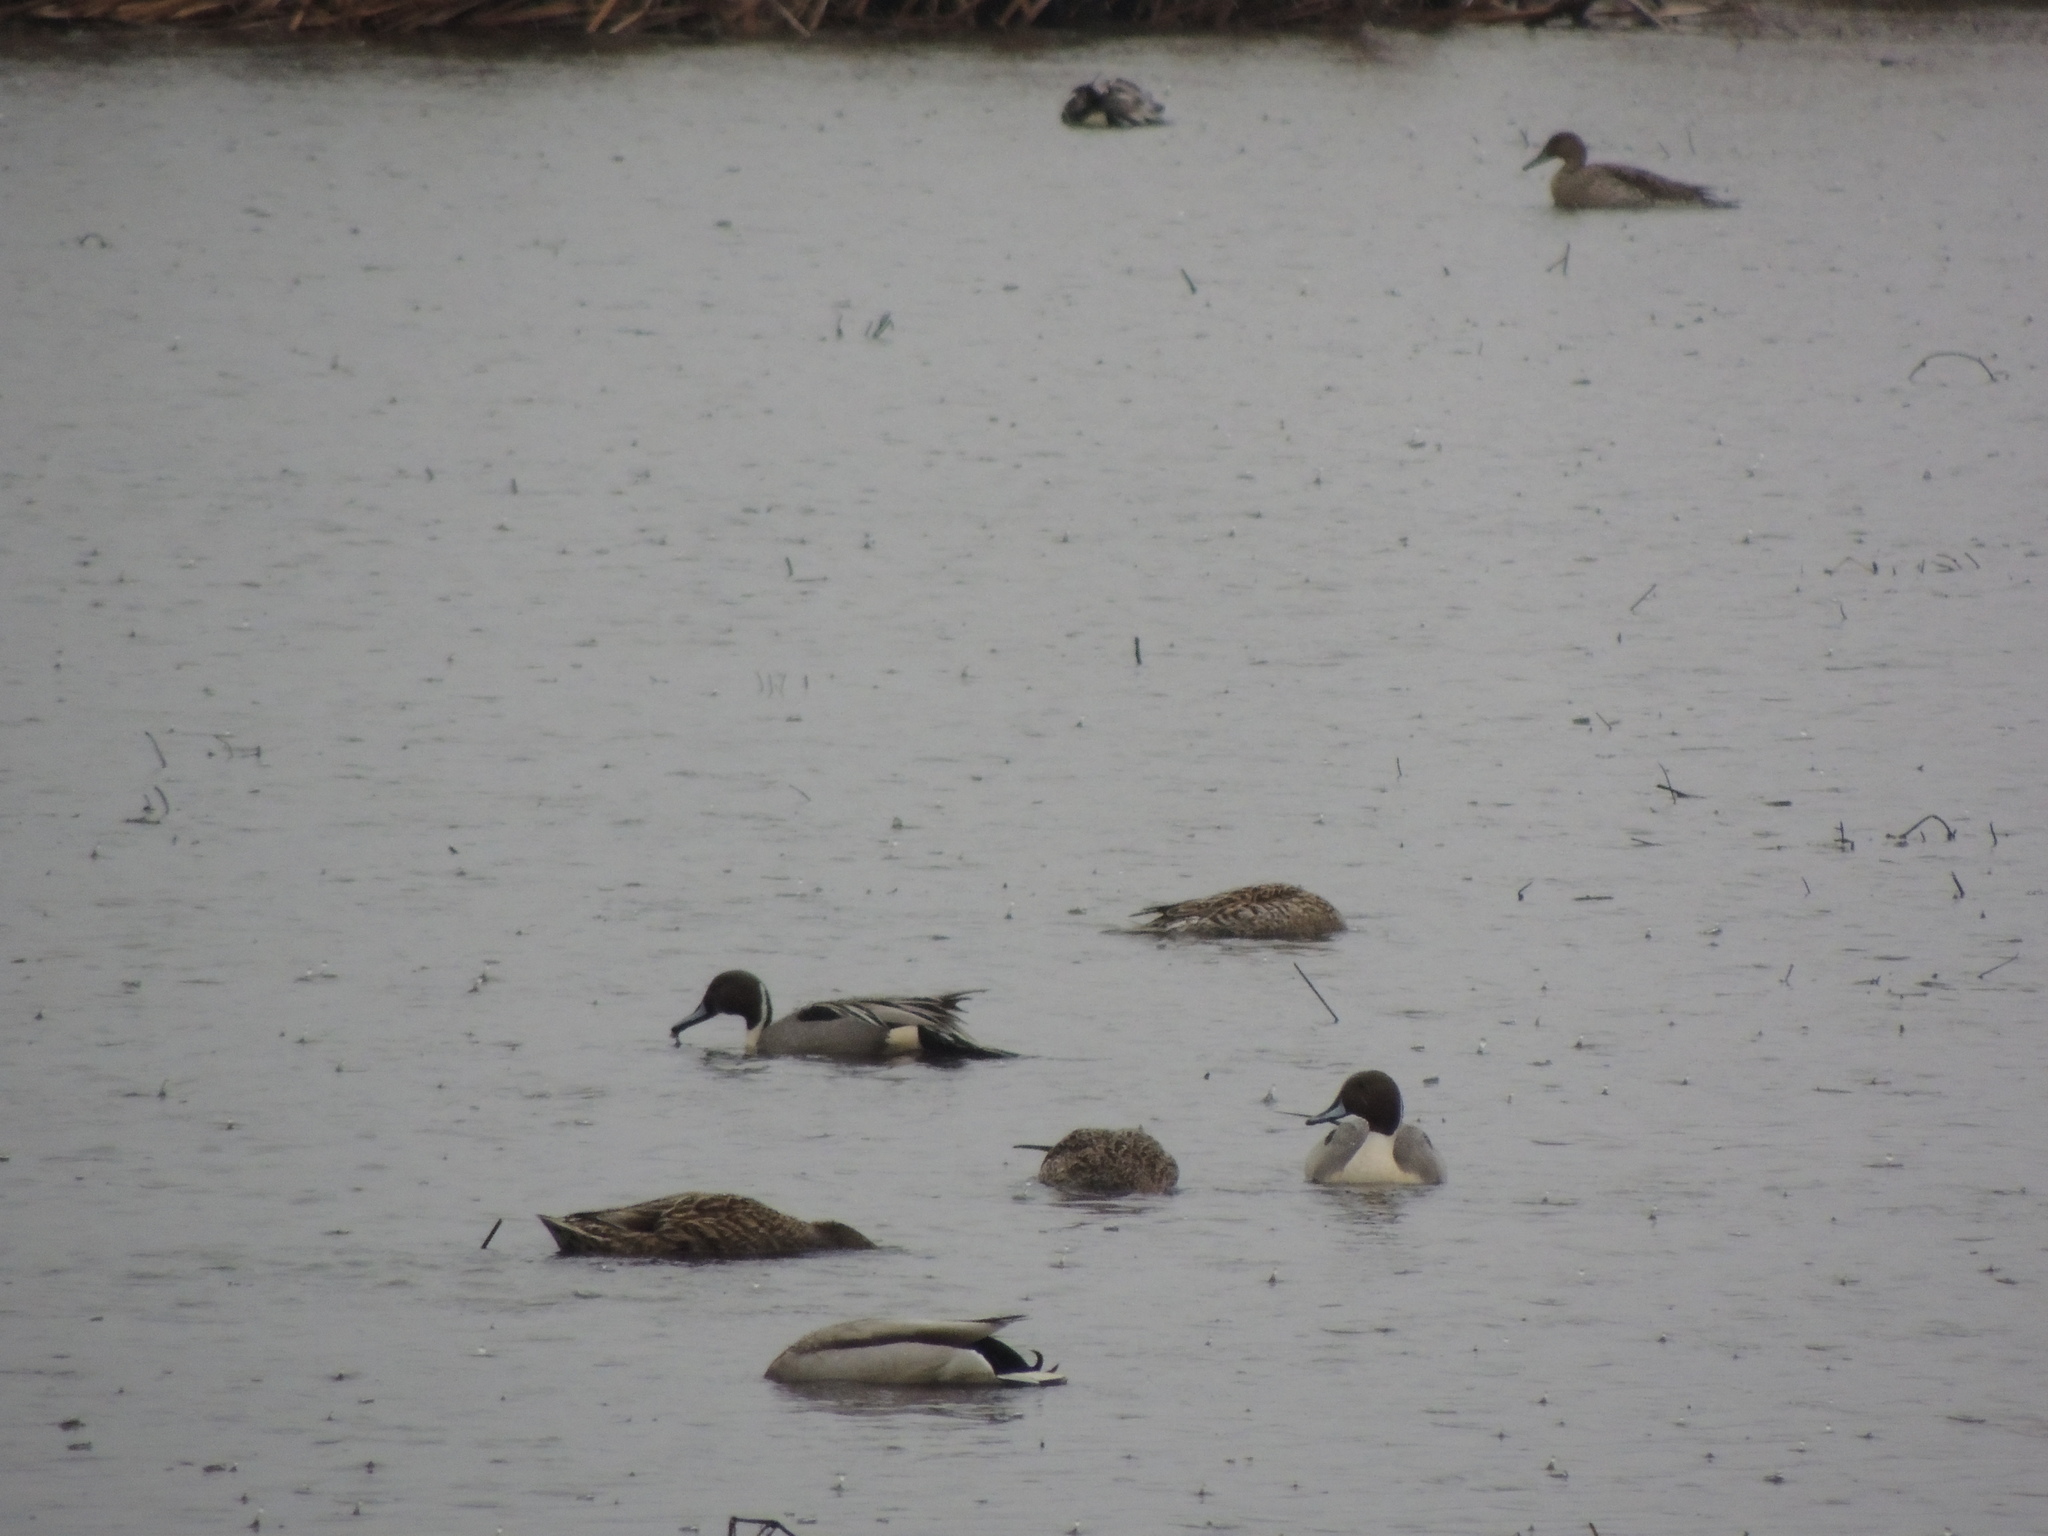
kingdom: Animalia
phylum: Chordata
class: Aves
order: Anseriformes
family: Anatidae
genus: Anas
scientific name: Anas acuta
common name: Northern pintail
